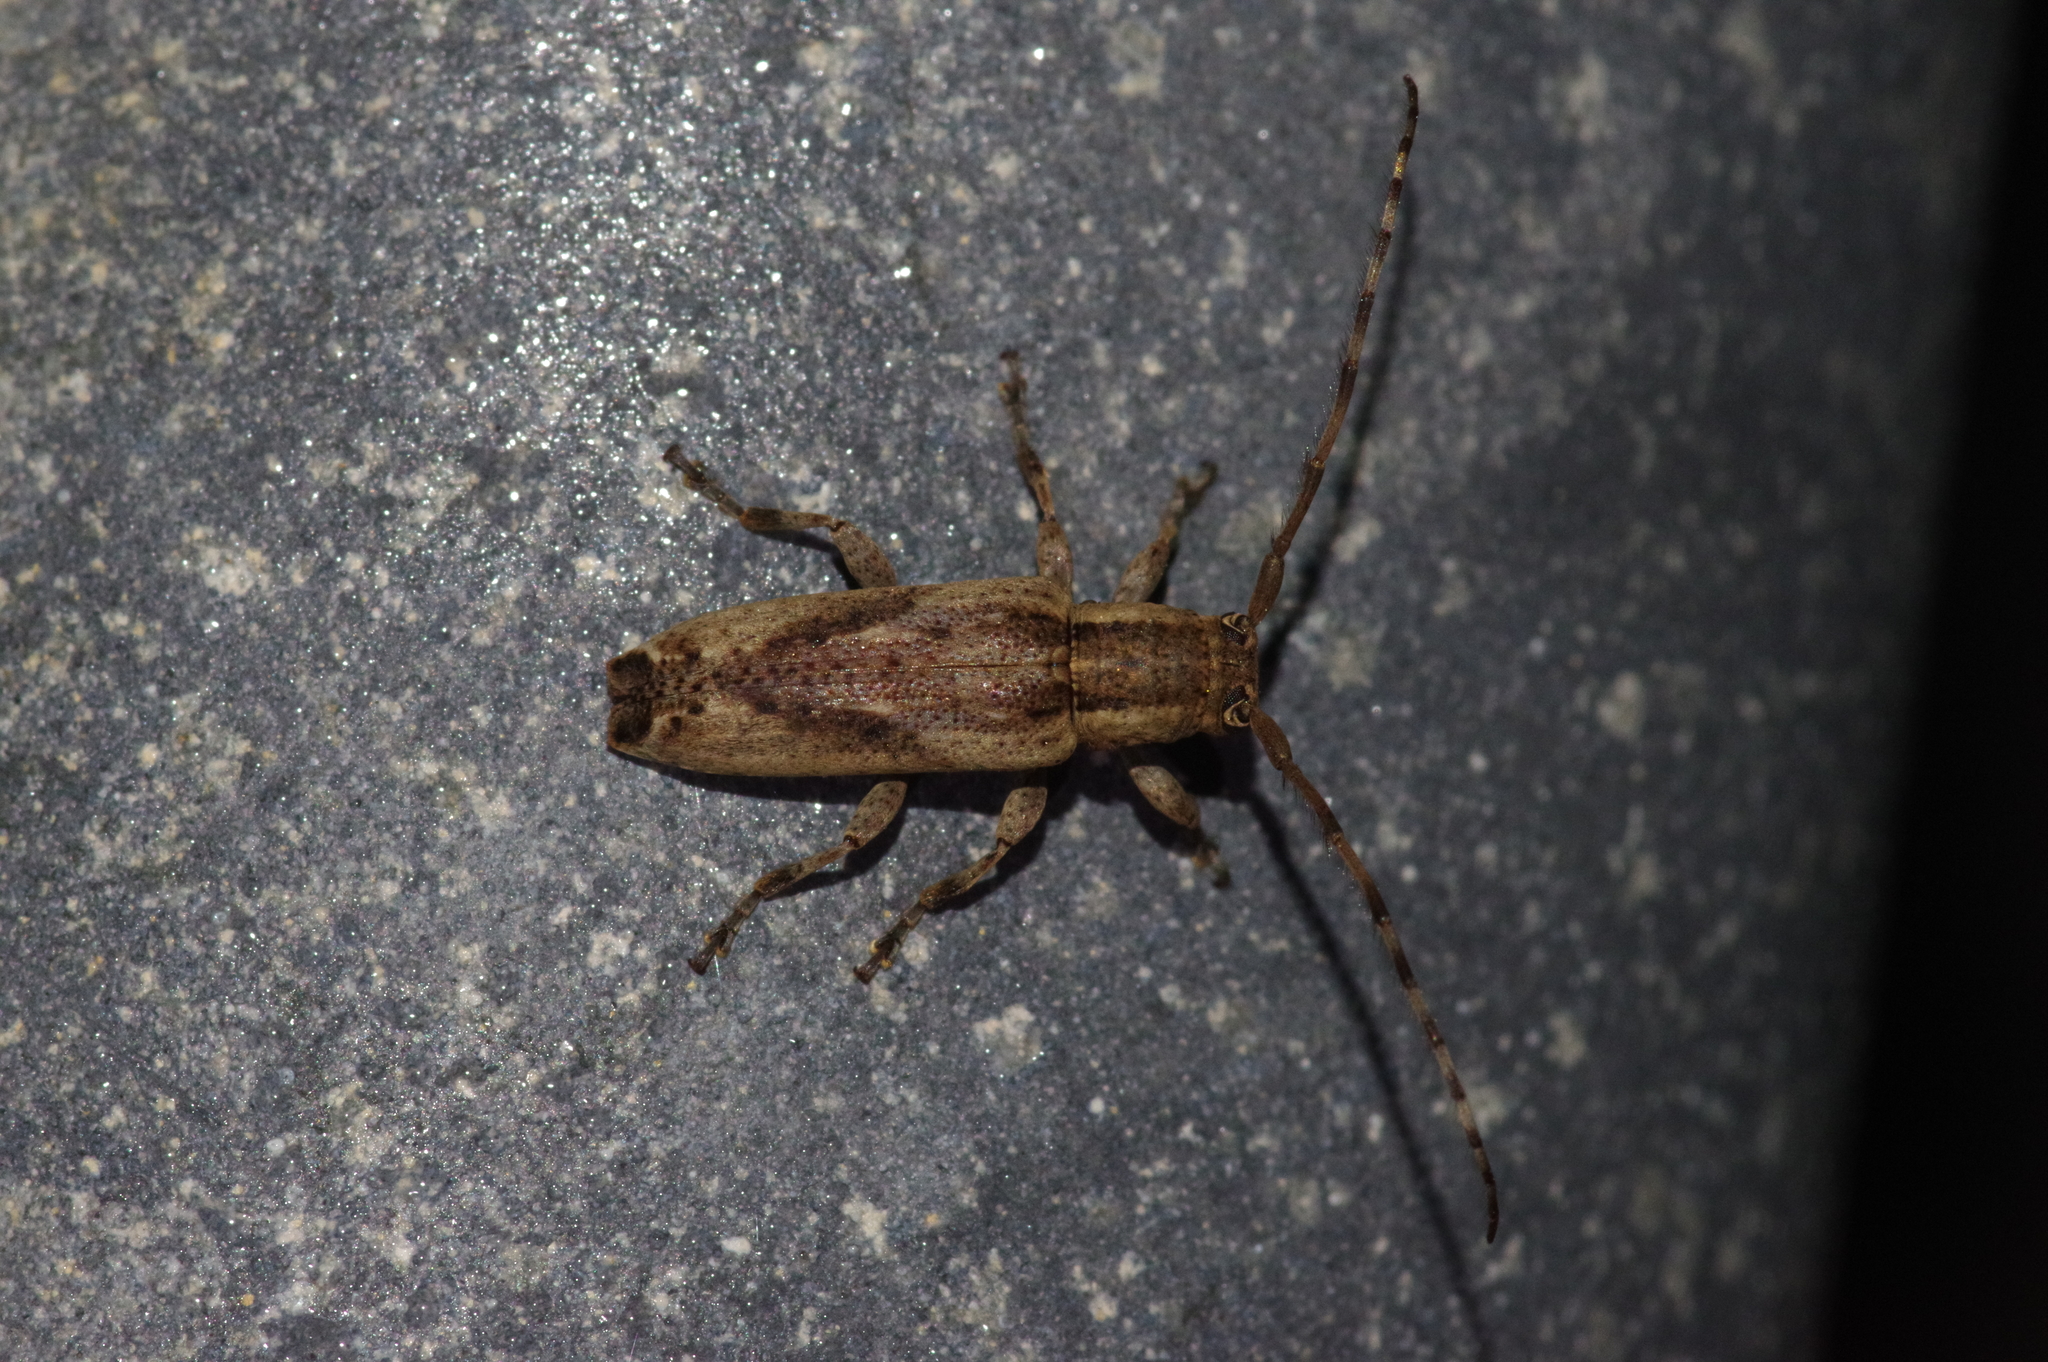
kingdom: Animalia
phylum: Arthropoda
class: Insecta
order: Coleoptera
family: Cerambycidae
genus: Mimectatina
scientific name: Mimectatina meridiana
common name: Long-horned beetle
